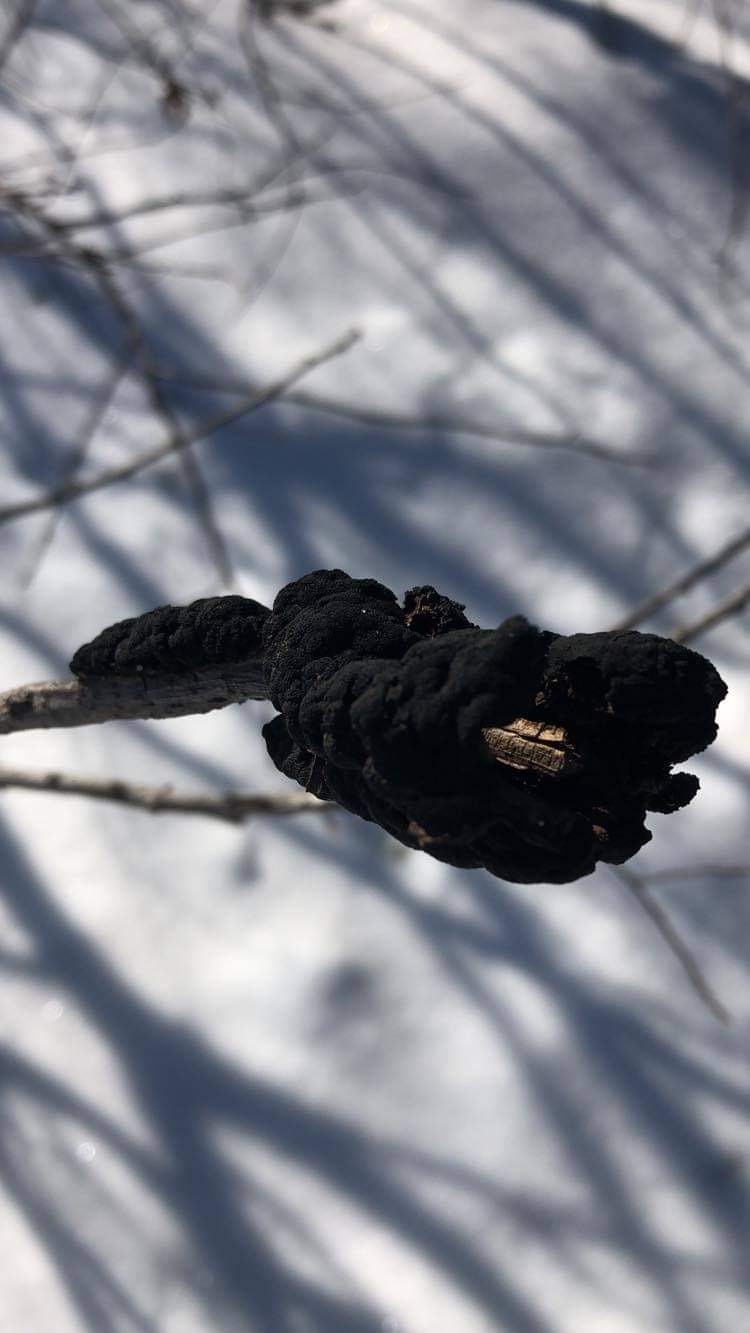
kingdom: Fungi
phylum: Ascomycota
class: Dothideomycetes
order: Venturiales
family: Venturiaceae
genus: Apiosporina
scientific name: Apiosporina morbosa
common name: Black knot
